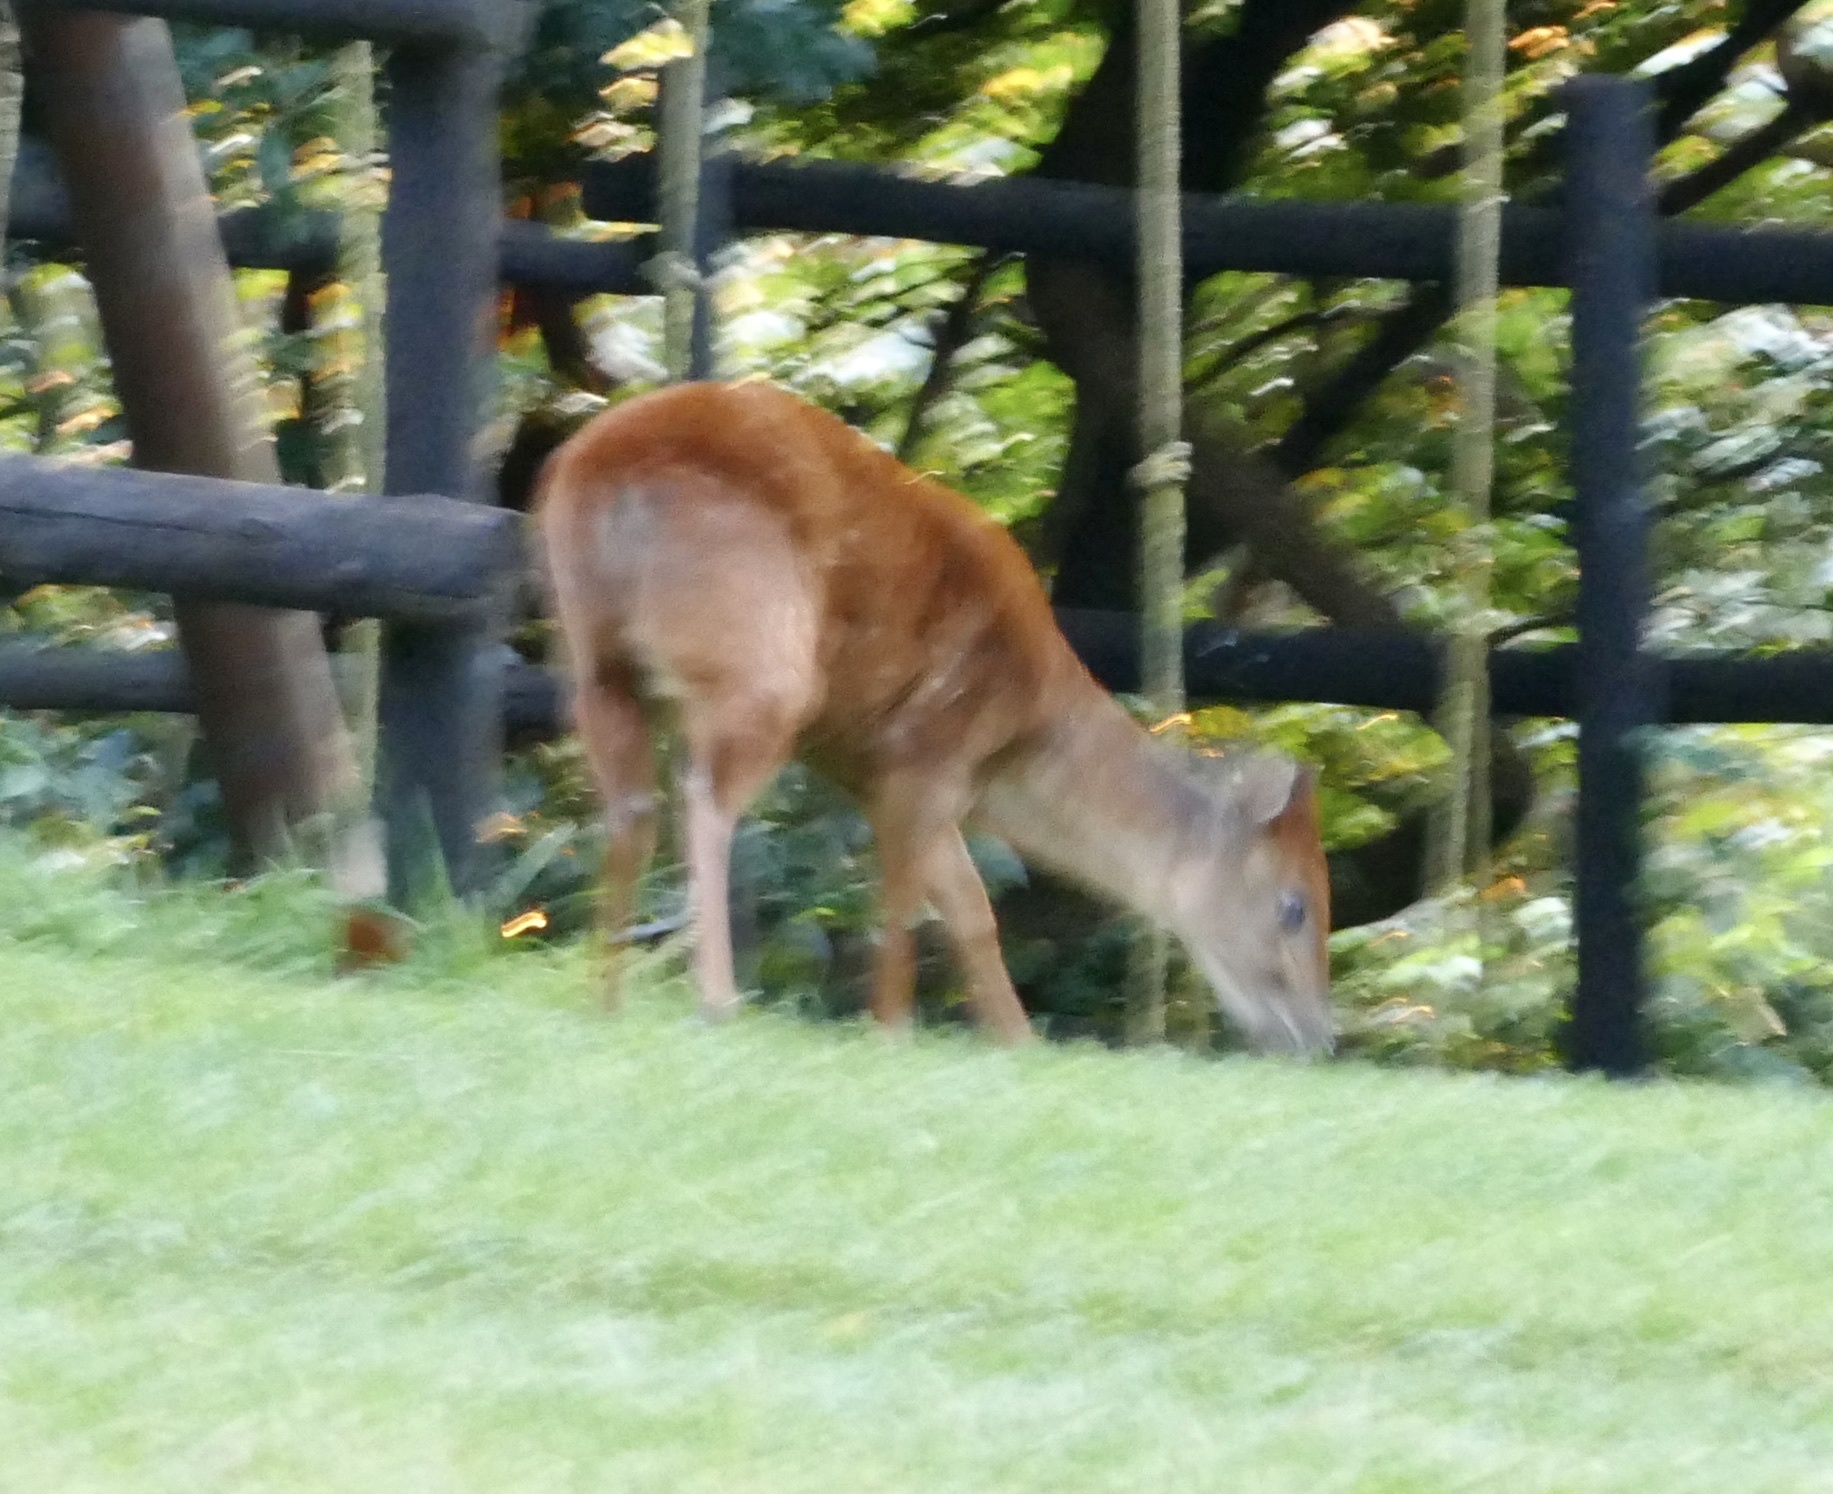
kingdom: Animalia
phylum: Chordata
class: Mammalia
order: Artiodactyla
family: Bovidae
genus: Cephalophus
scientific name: Cephalophus natalensis
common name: Red duiker
